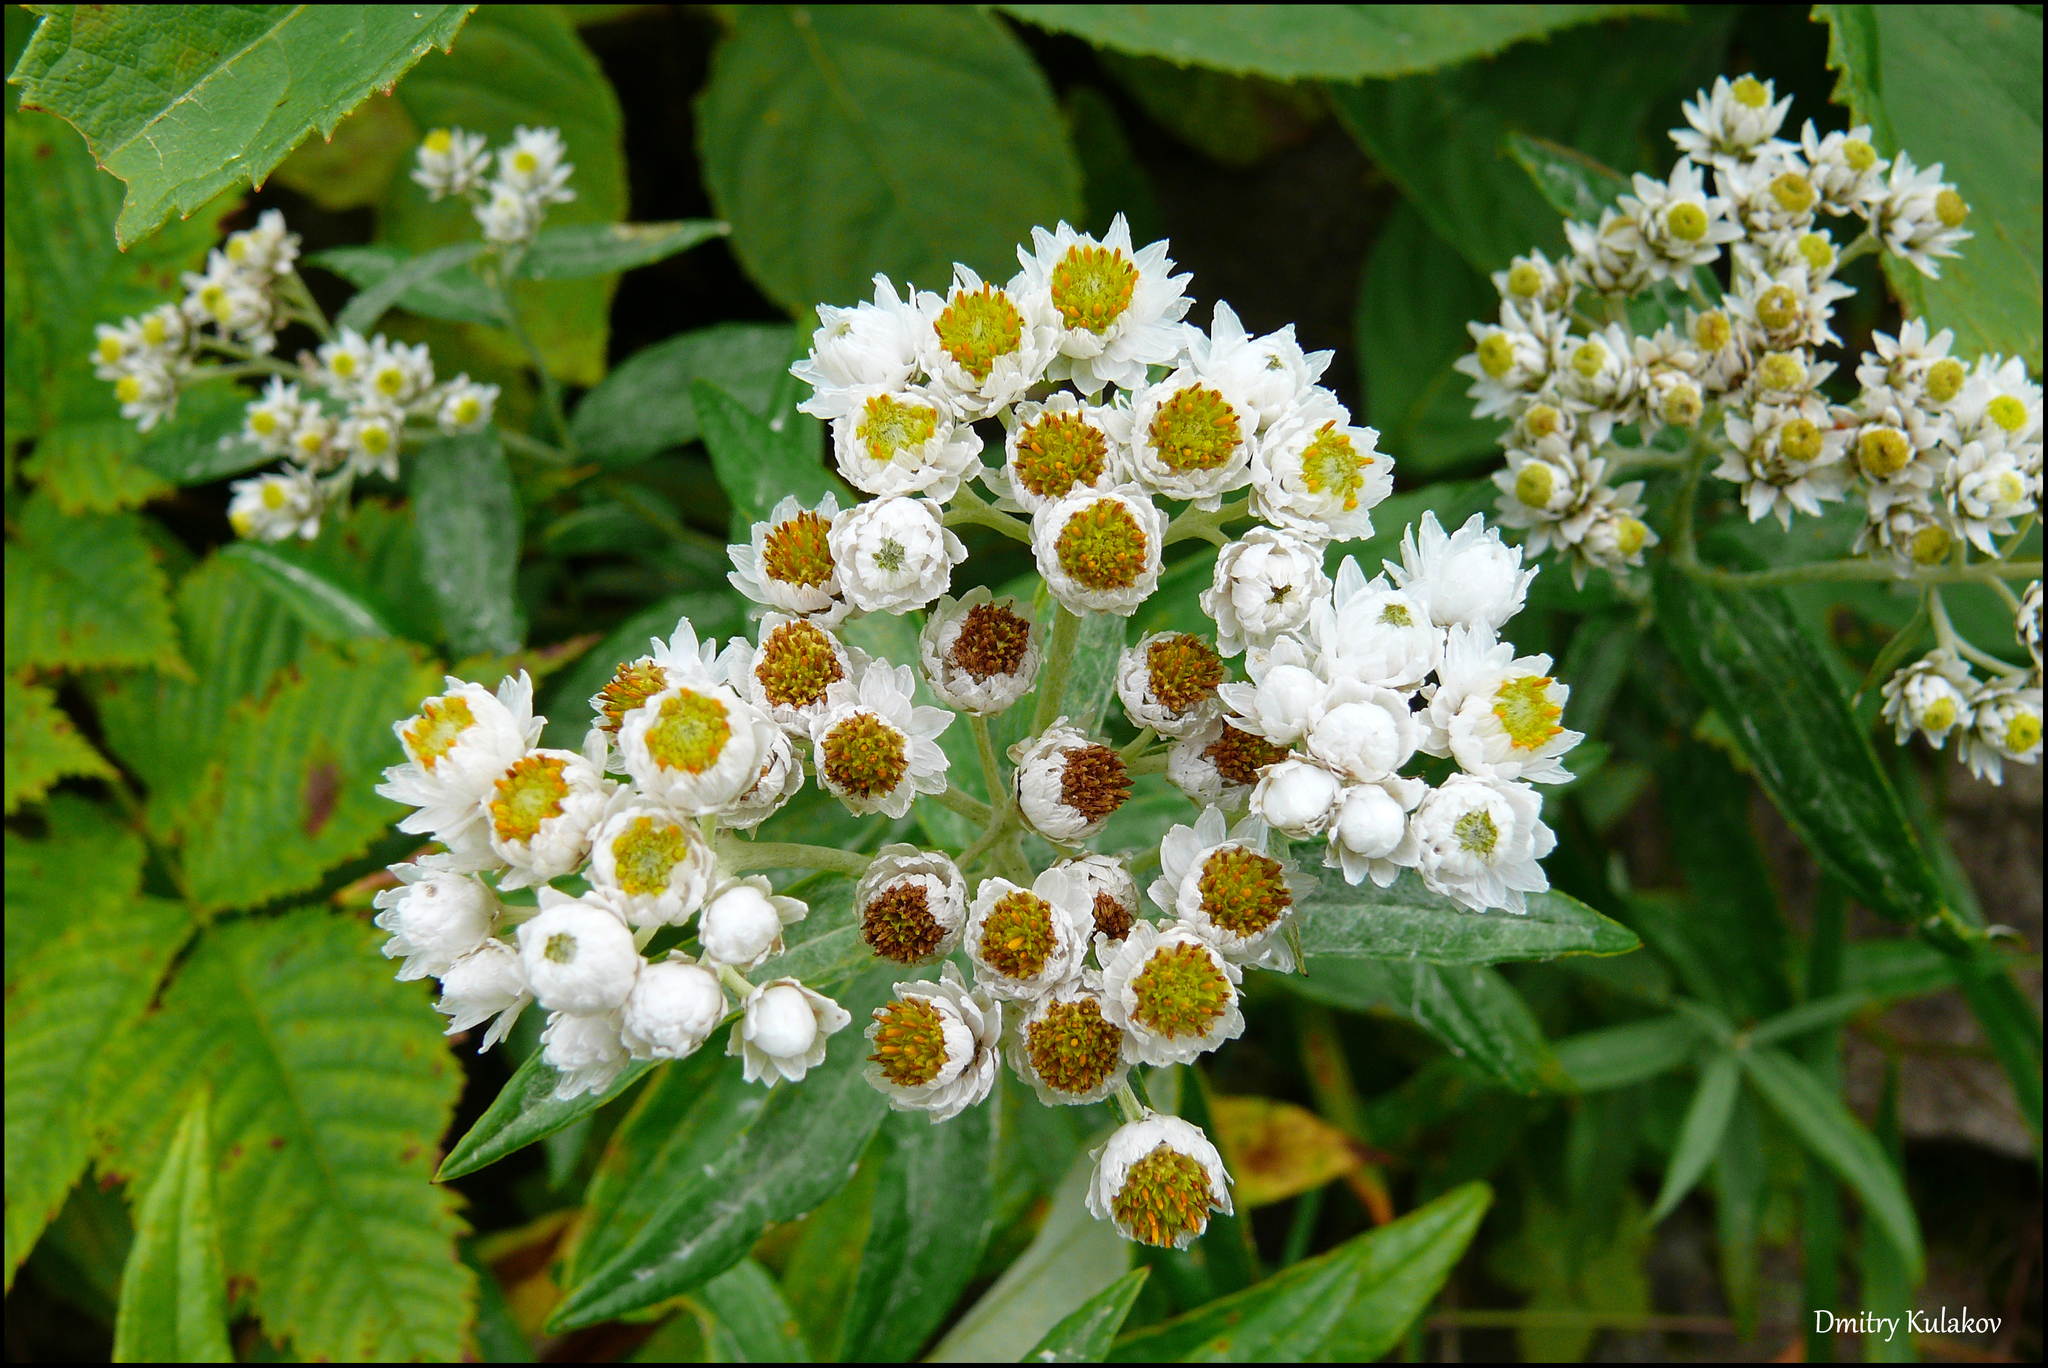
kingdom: Plantae
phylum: Tracheophyta
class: Magnoliopsida
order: Asterales
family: Asteraceae
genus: Anaphalis
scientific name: Anaphalis margaritacea
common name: Pearly everlasting
